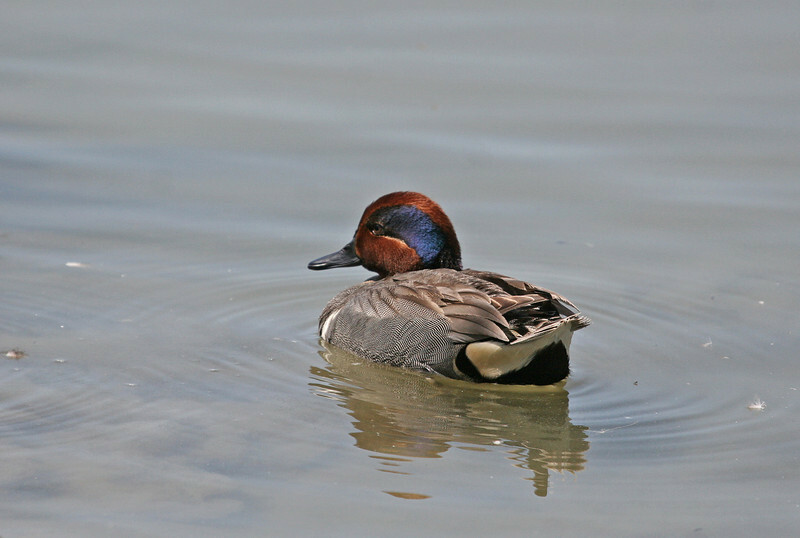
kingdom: Animalia
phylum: Chordata
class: Aves
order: Anseriformes
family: Anatidae
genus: Anas
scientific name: Anas crecca
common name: Eurasian teal
